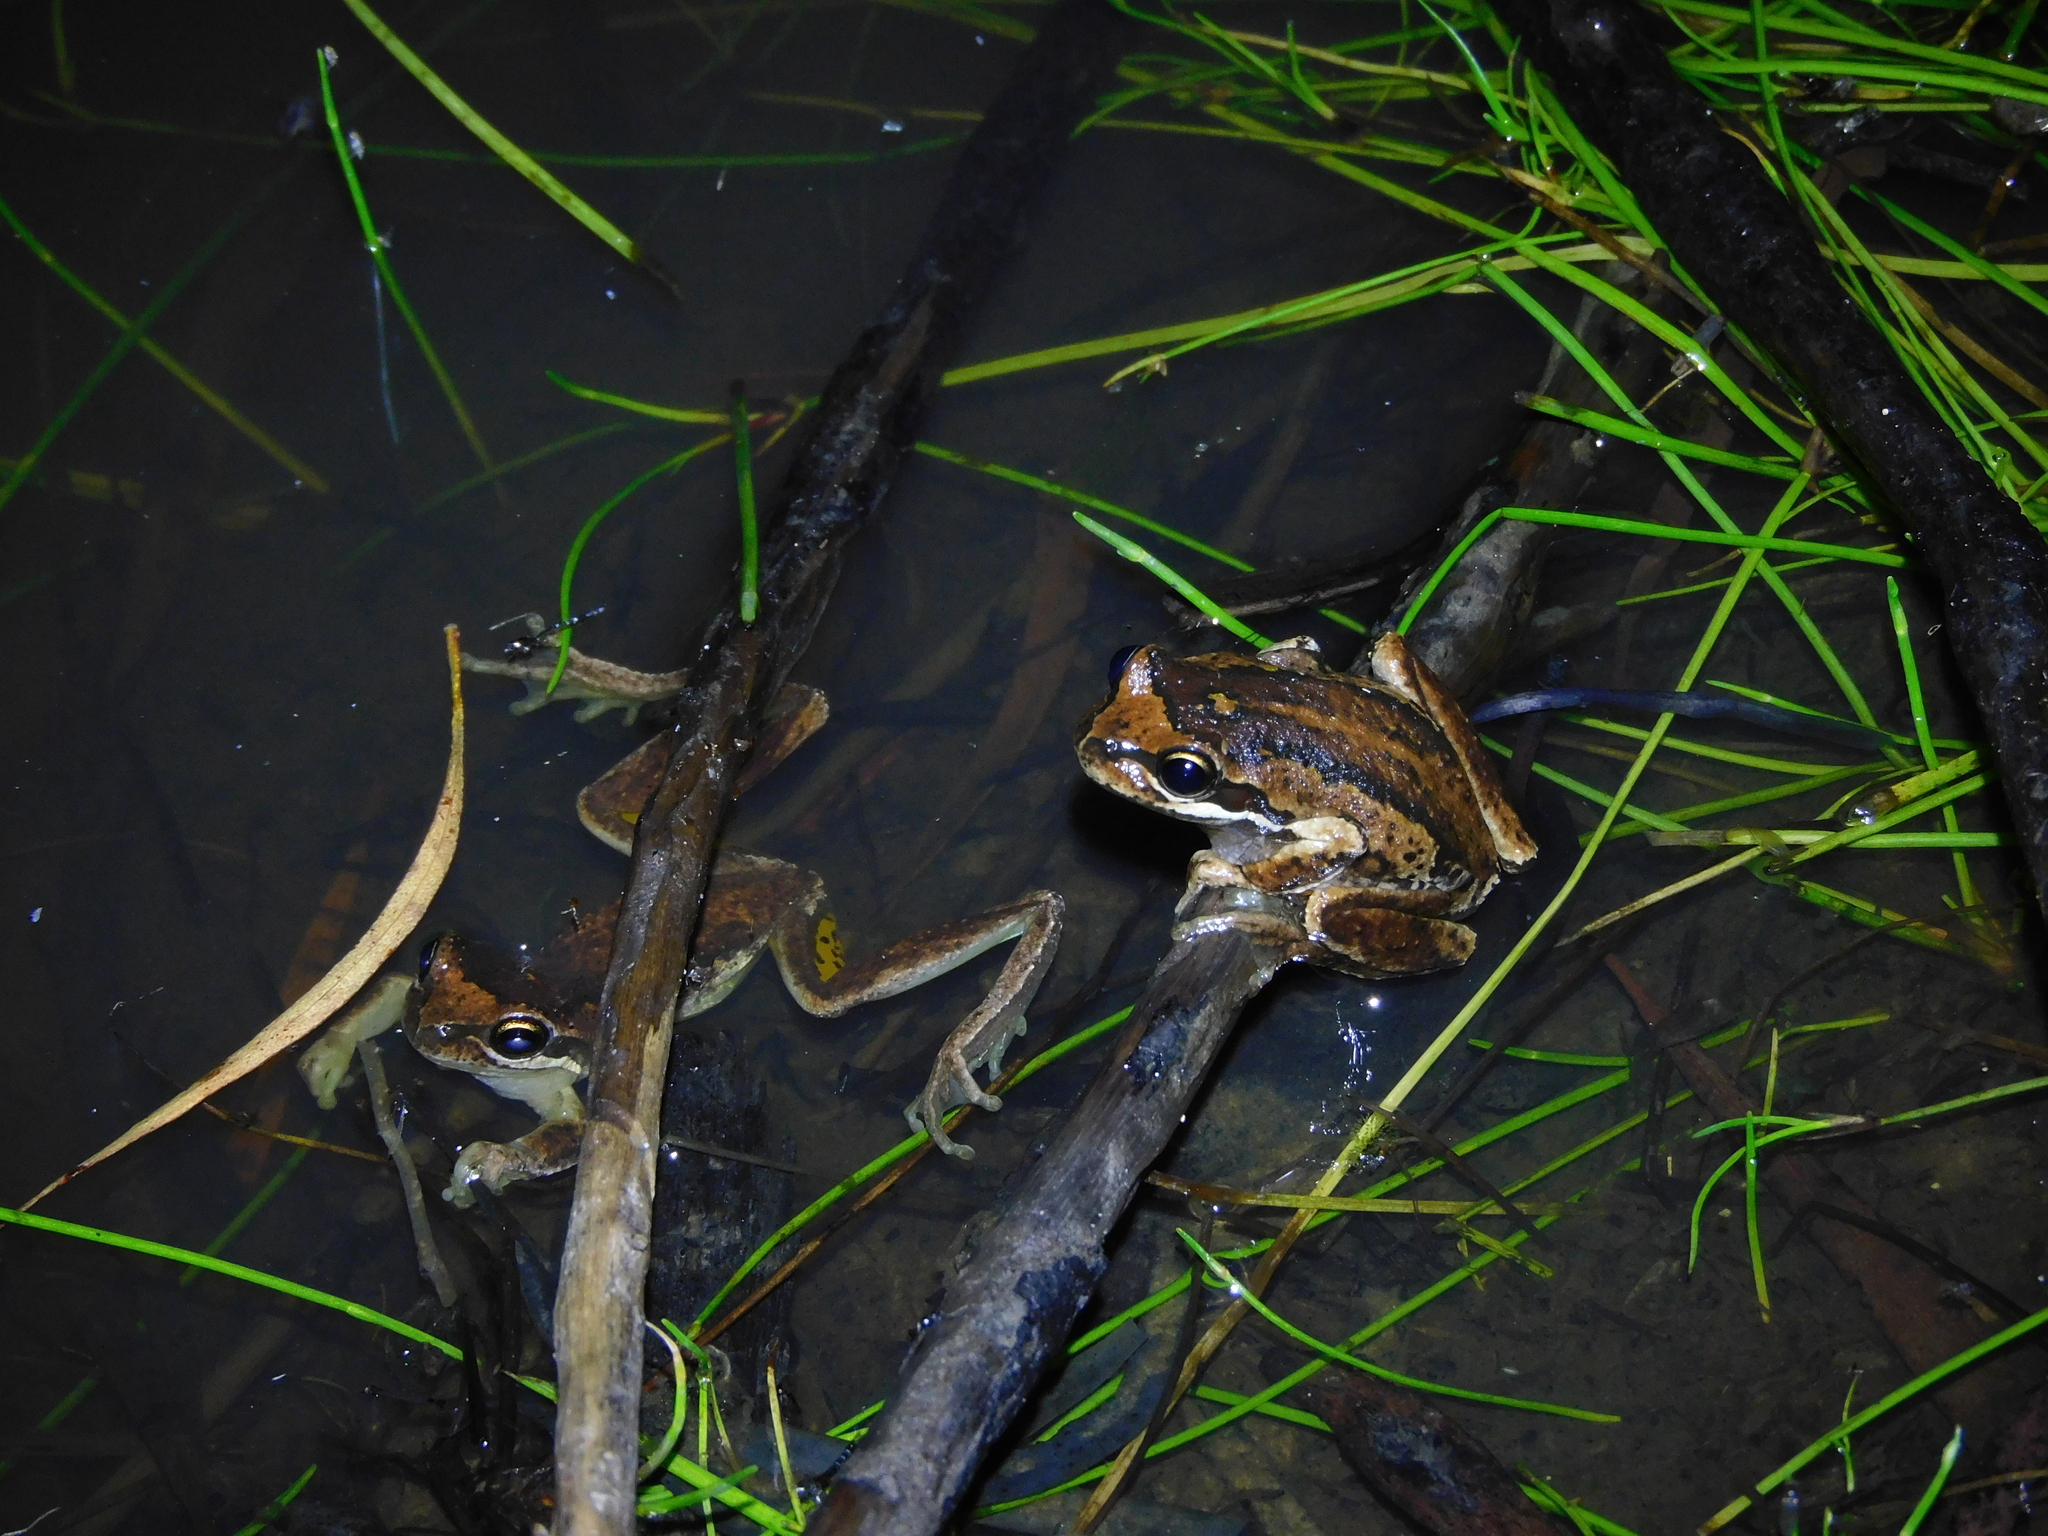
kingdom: Animalia
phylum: Chordata
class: Amphibia
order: Anura
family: Pelodryadidae
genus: Litoria
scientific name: Litoria ewingii
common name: Southern brown tree frog
